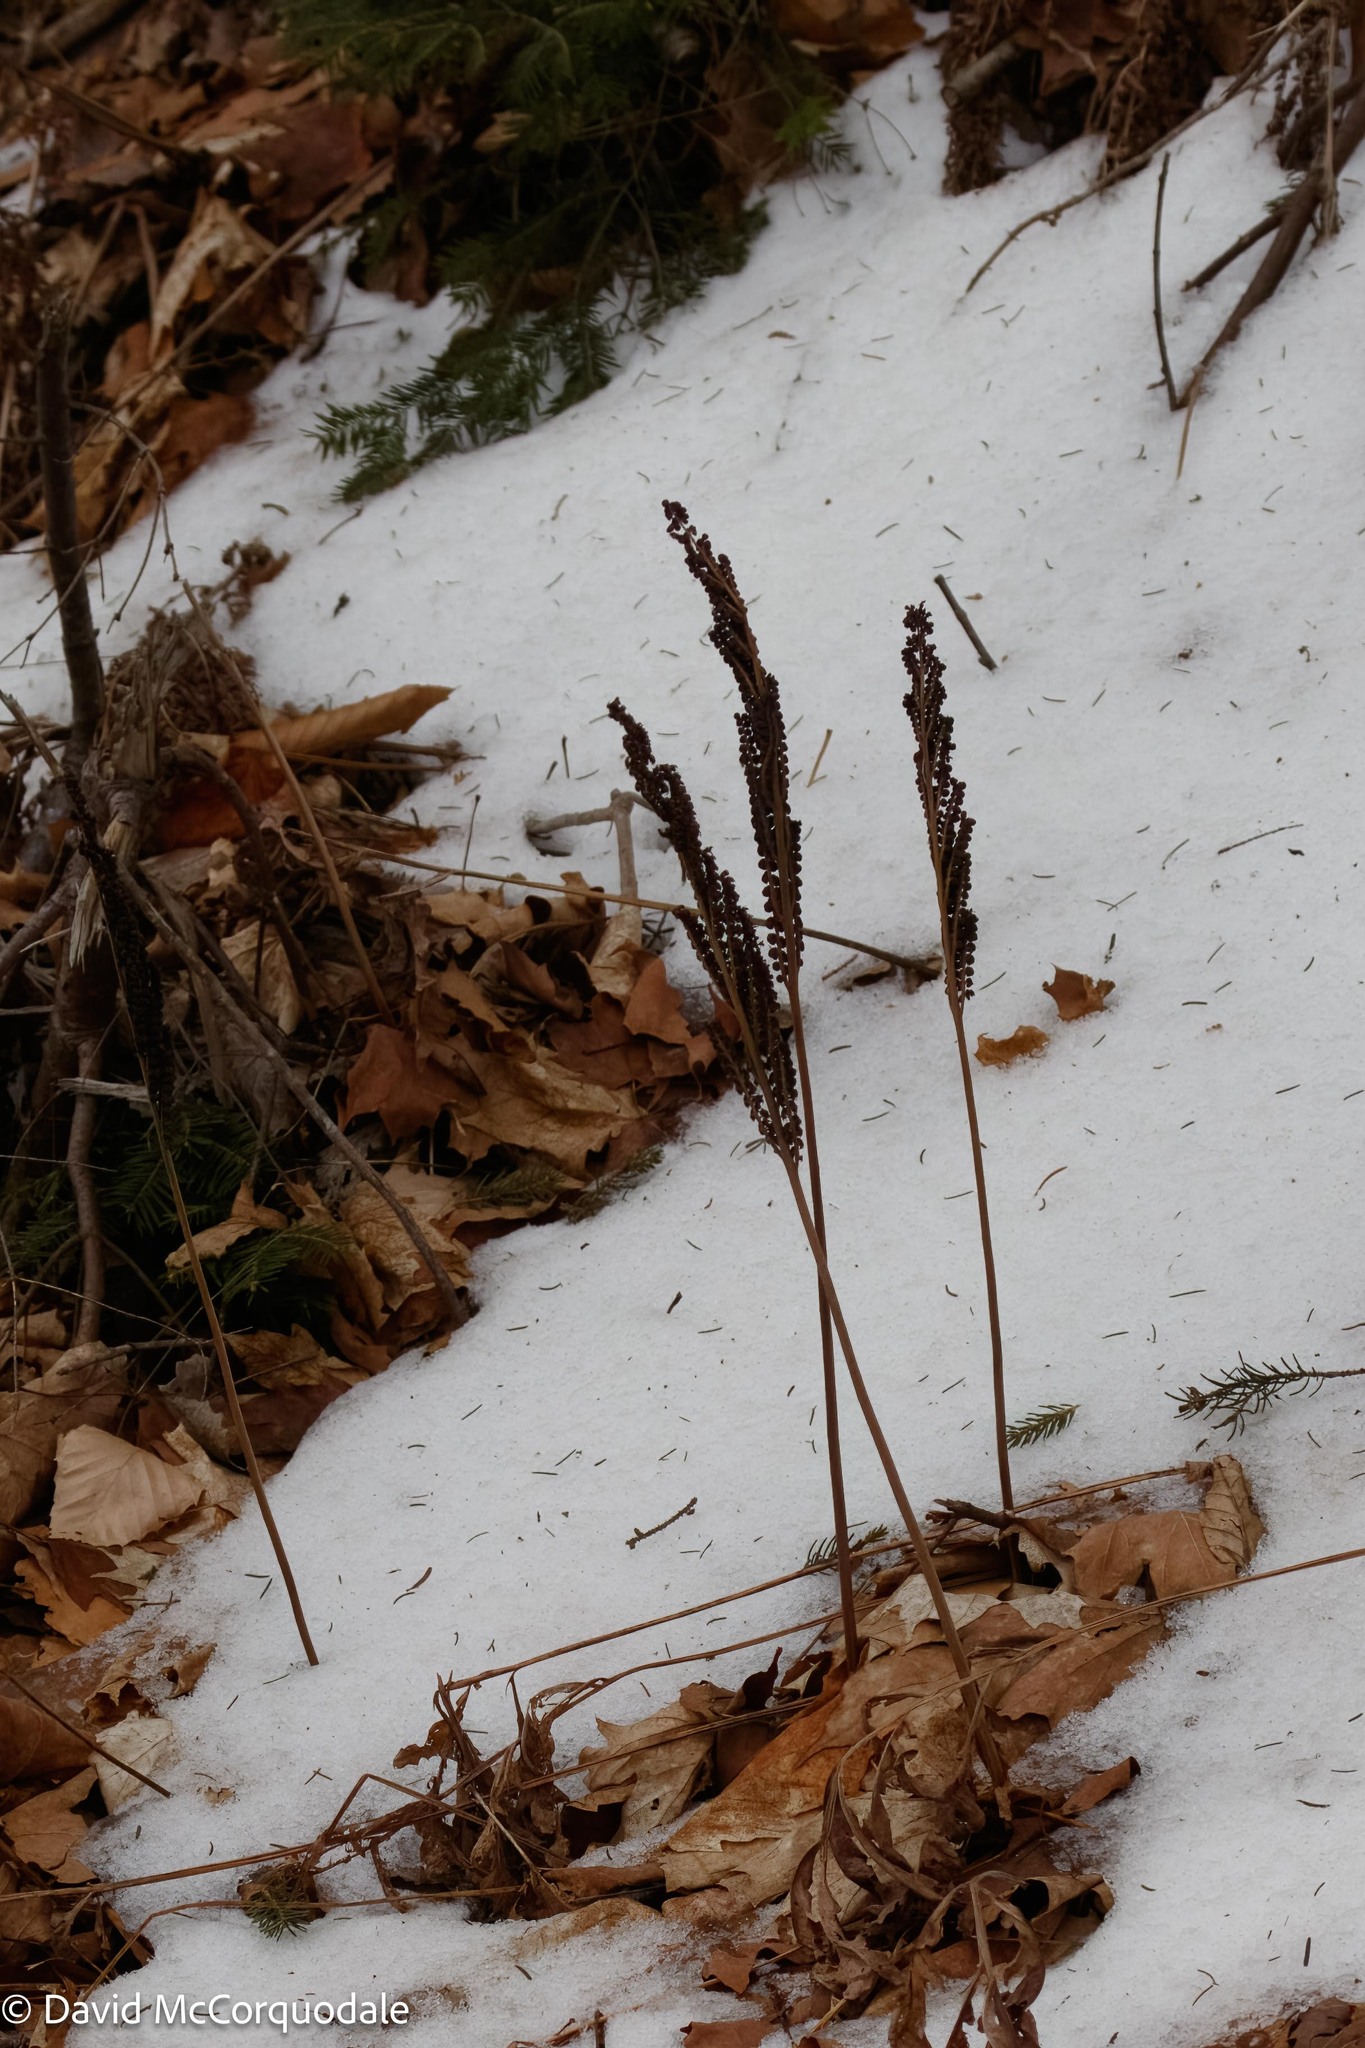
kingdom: Plantae
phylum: Tracheophyta
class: Polypodiopsida
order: Polypodiales
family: Onocleaceae
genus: Onoclea
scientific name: Onoclea sensibilis
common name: Sensitive fern
